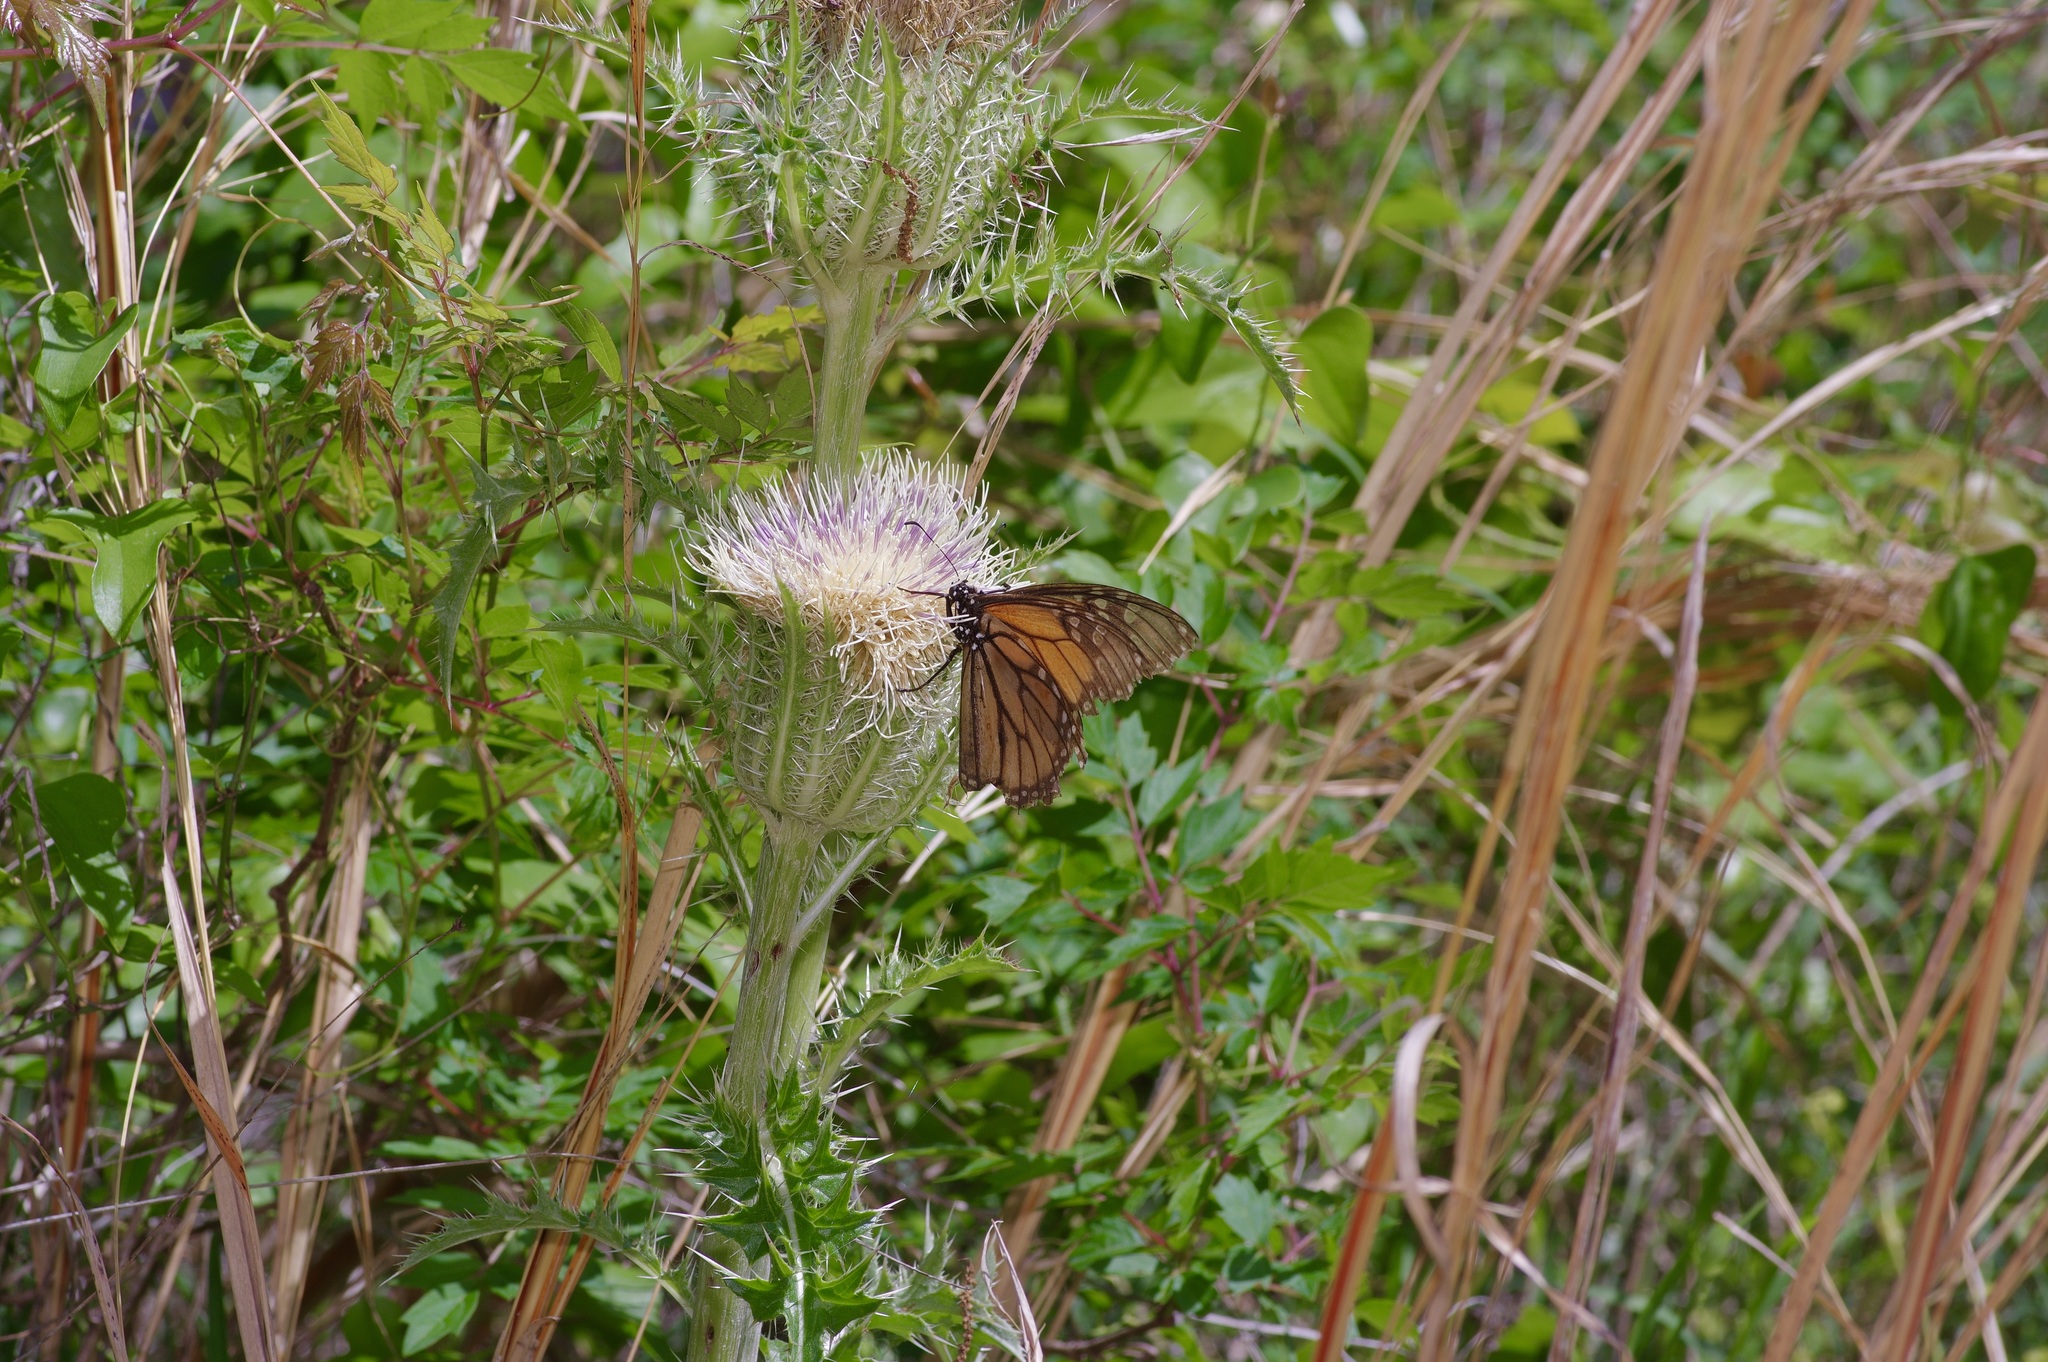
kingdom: Animalia
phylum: Arthropoda
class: Insecta
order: Lepidoptera
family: Nymphalidae
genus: Danaus
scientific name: Danaus plexippus
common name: Monarch
